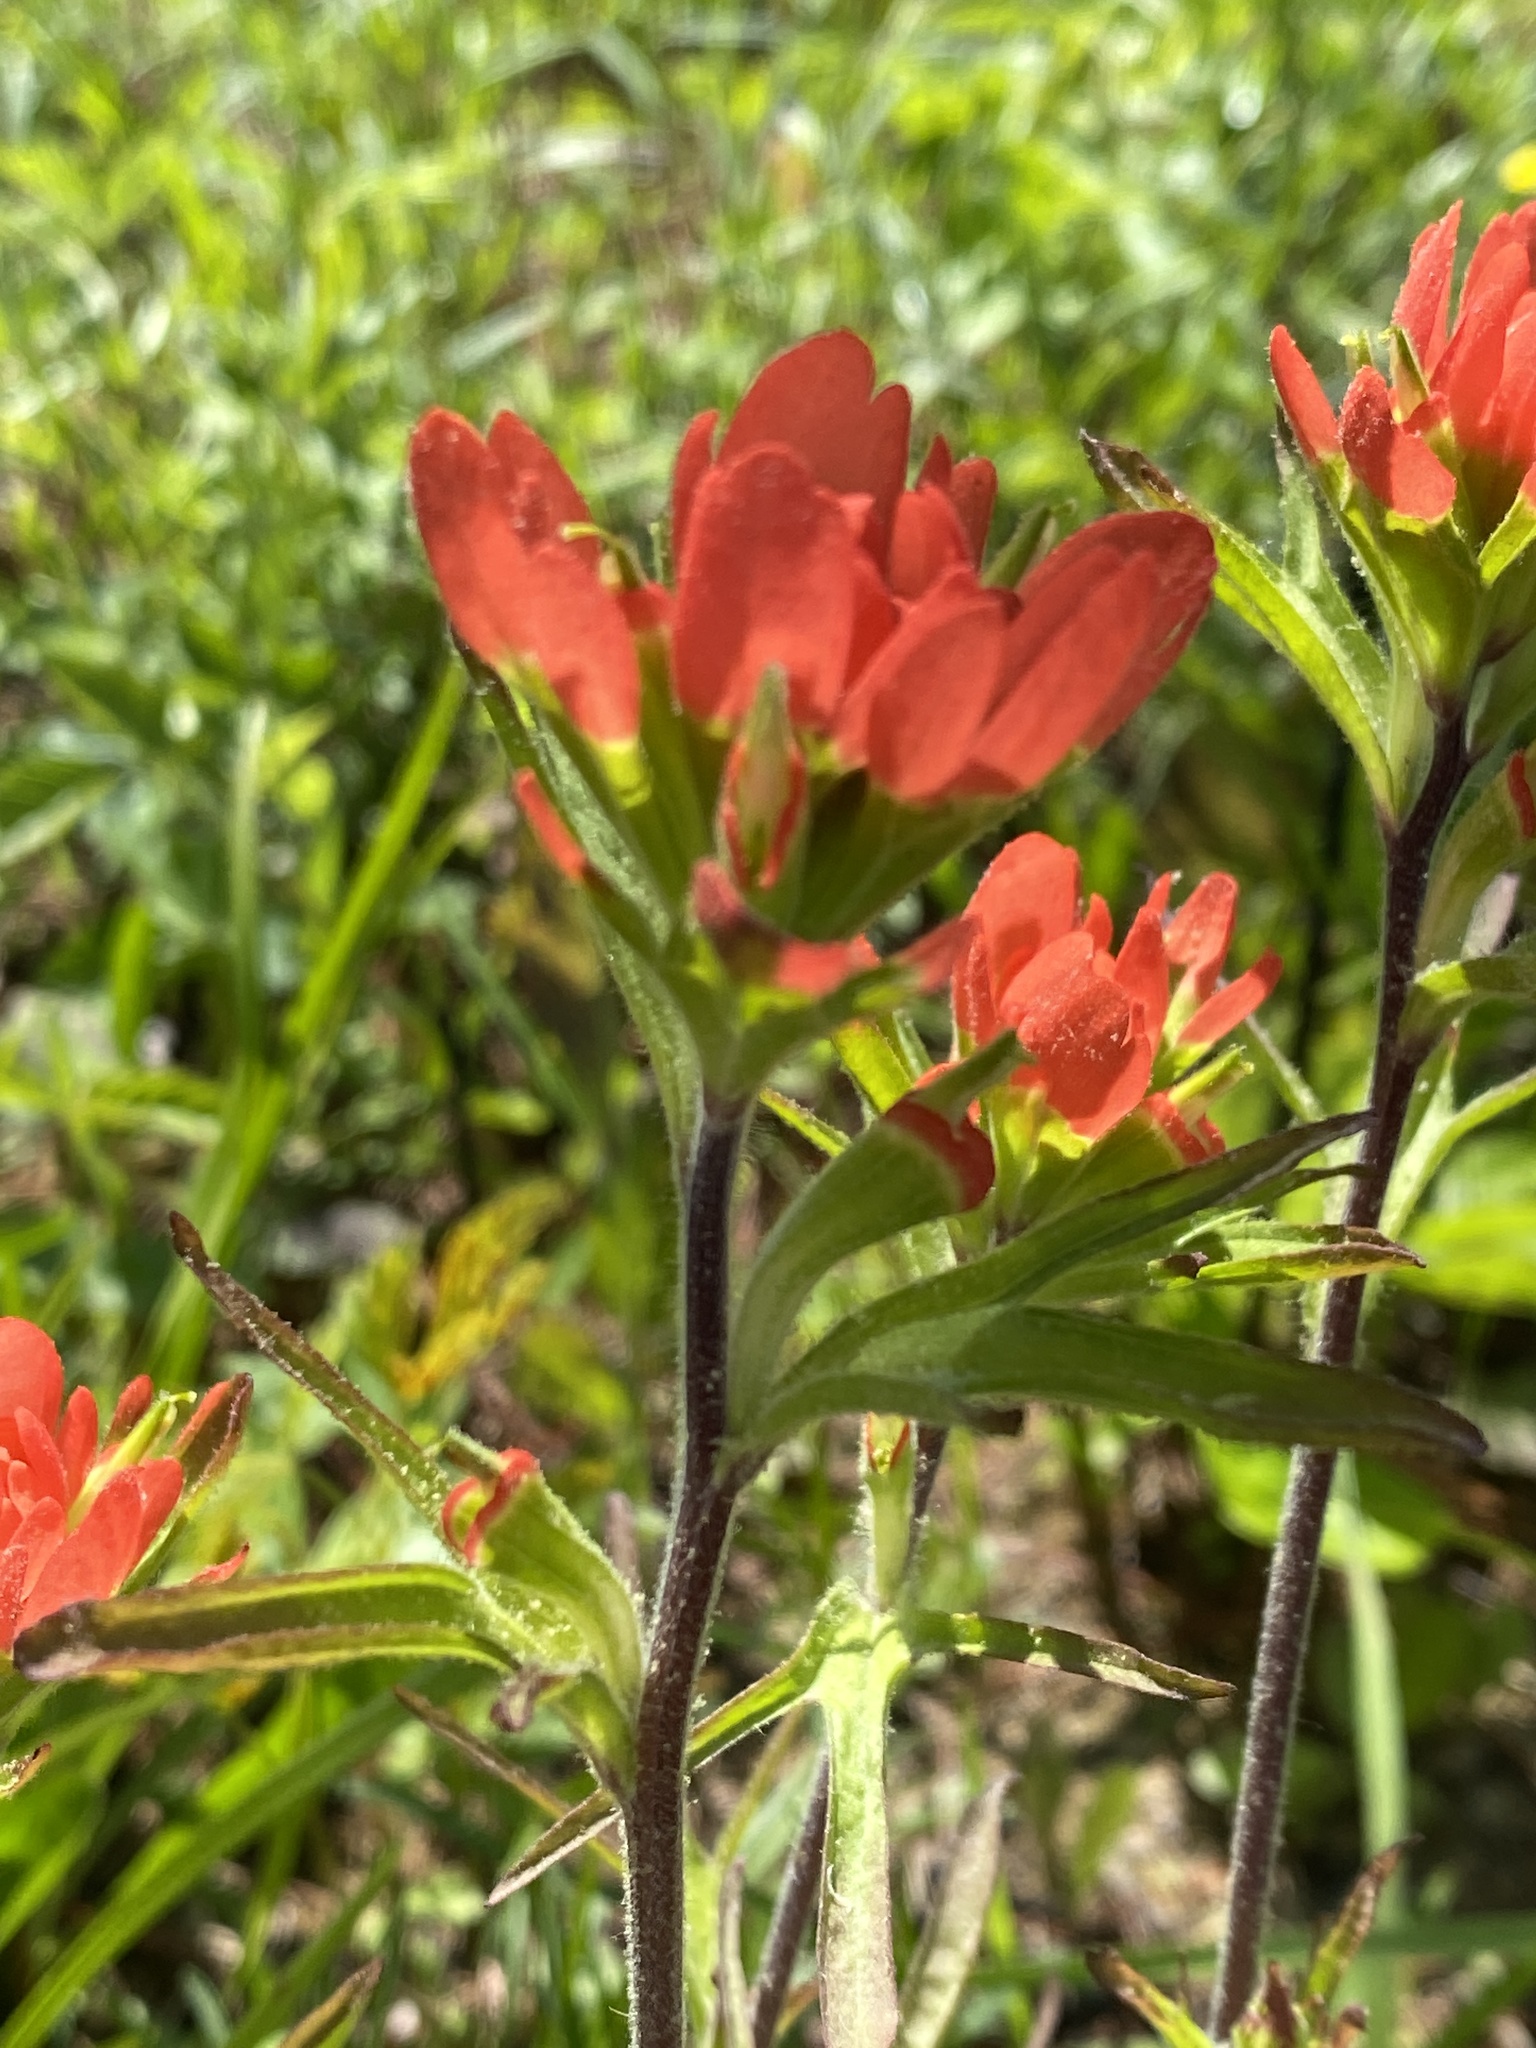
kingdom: Plantae
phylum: Tracheophyta
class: Magnoliopsida
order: Lamiales
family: Orobanchaceae
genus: Castilleja
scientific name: Castilleja coccinea
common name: Scarlet paintbrush
